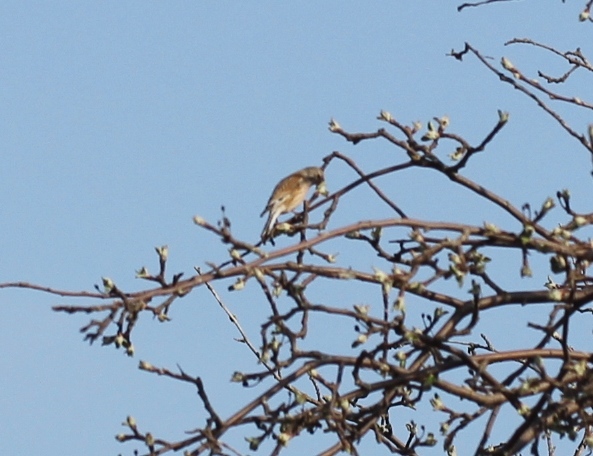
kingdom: Animalia
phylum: Chordata
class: Aves
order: Passeriformes
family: Fringillidae
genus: Linaria
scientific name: Linaria cannabina
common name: Common linnet
